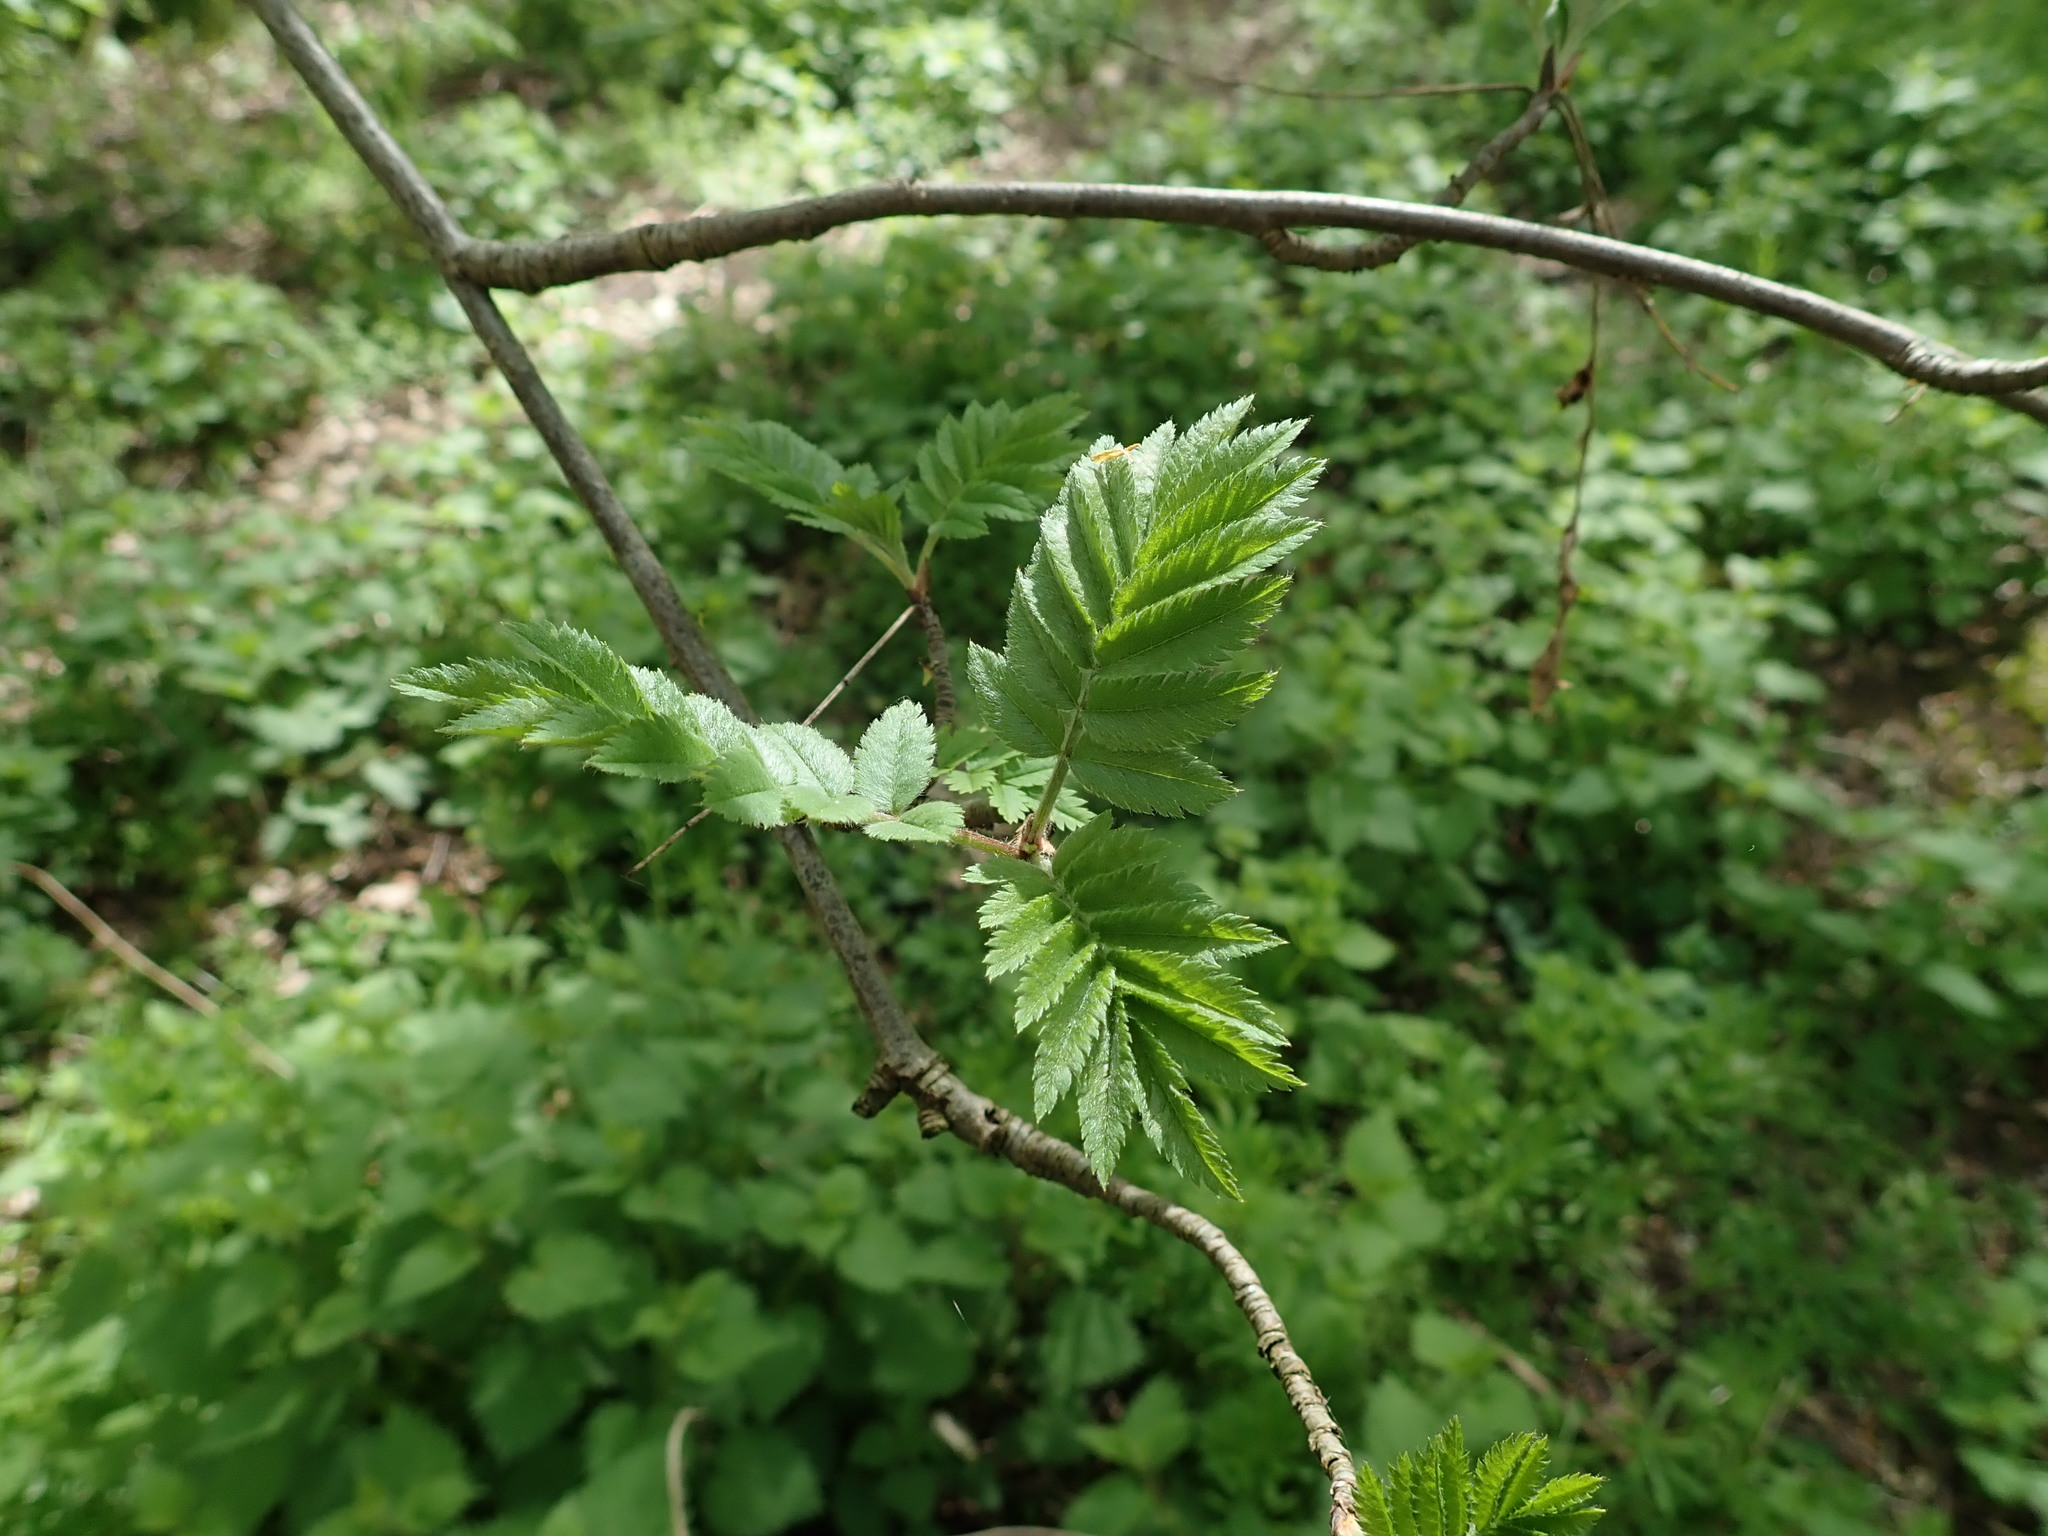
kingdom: Plantae
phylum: Tracheophyta
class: Magnoliopsida
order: Rosales
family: Rosaceae
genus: Sorbus
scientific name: Sorbus aucuparia
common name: Rowan
